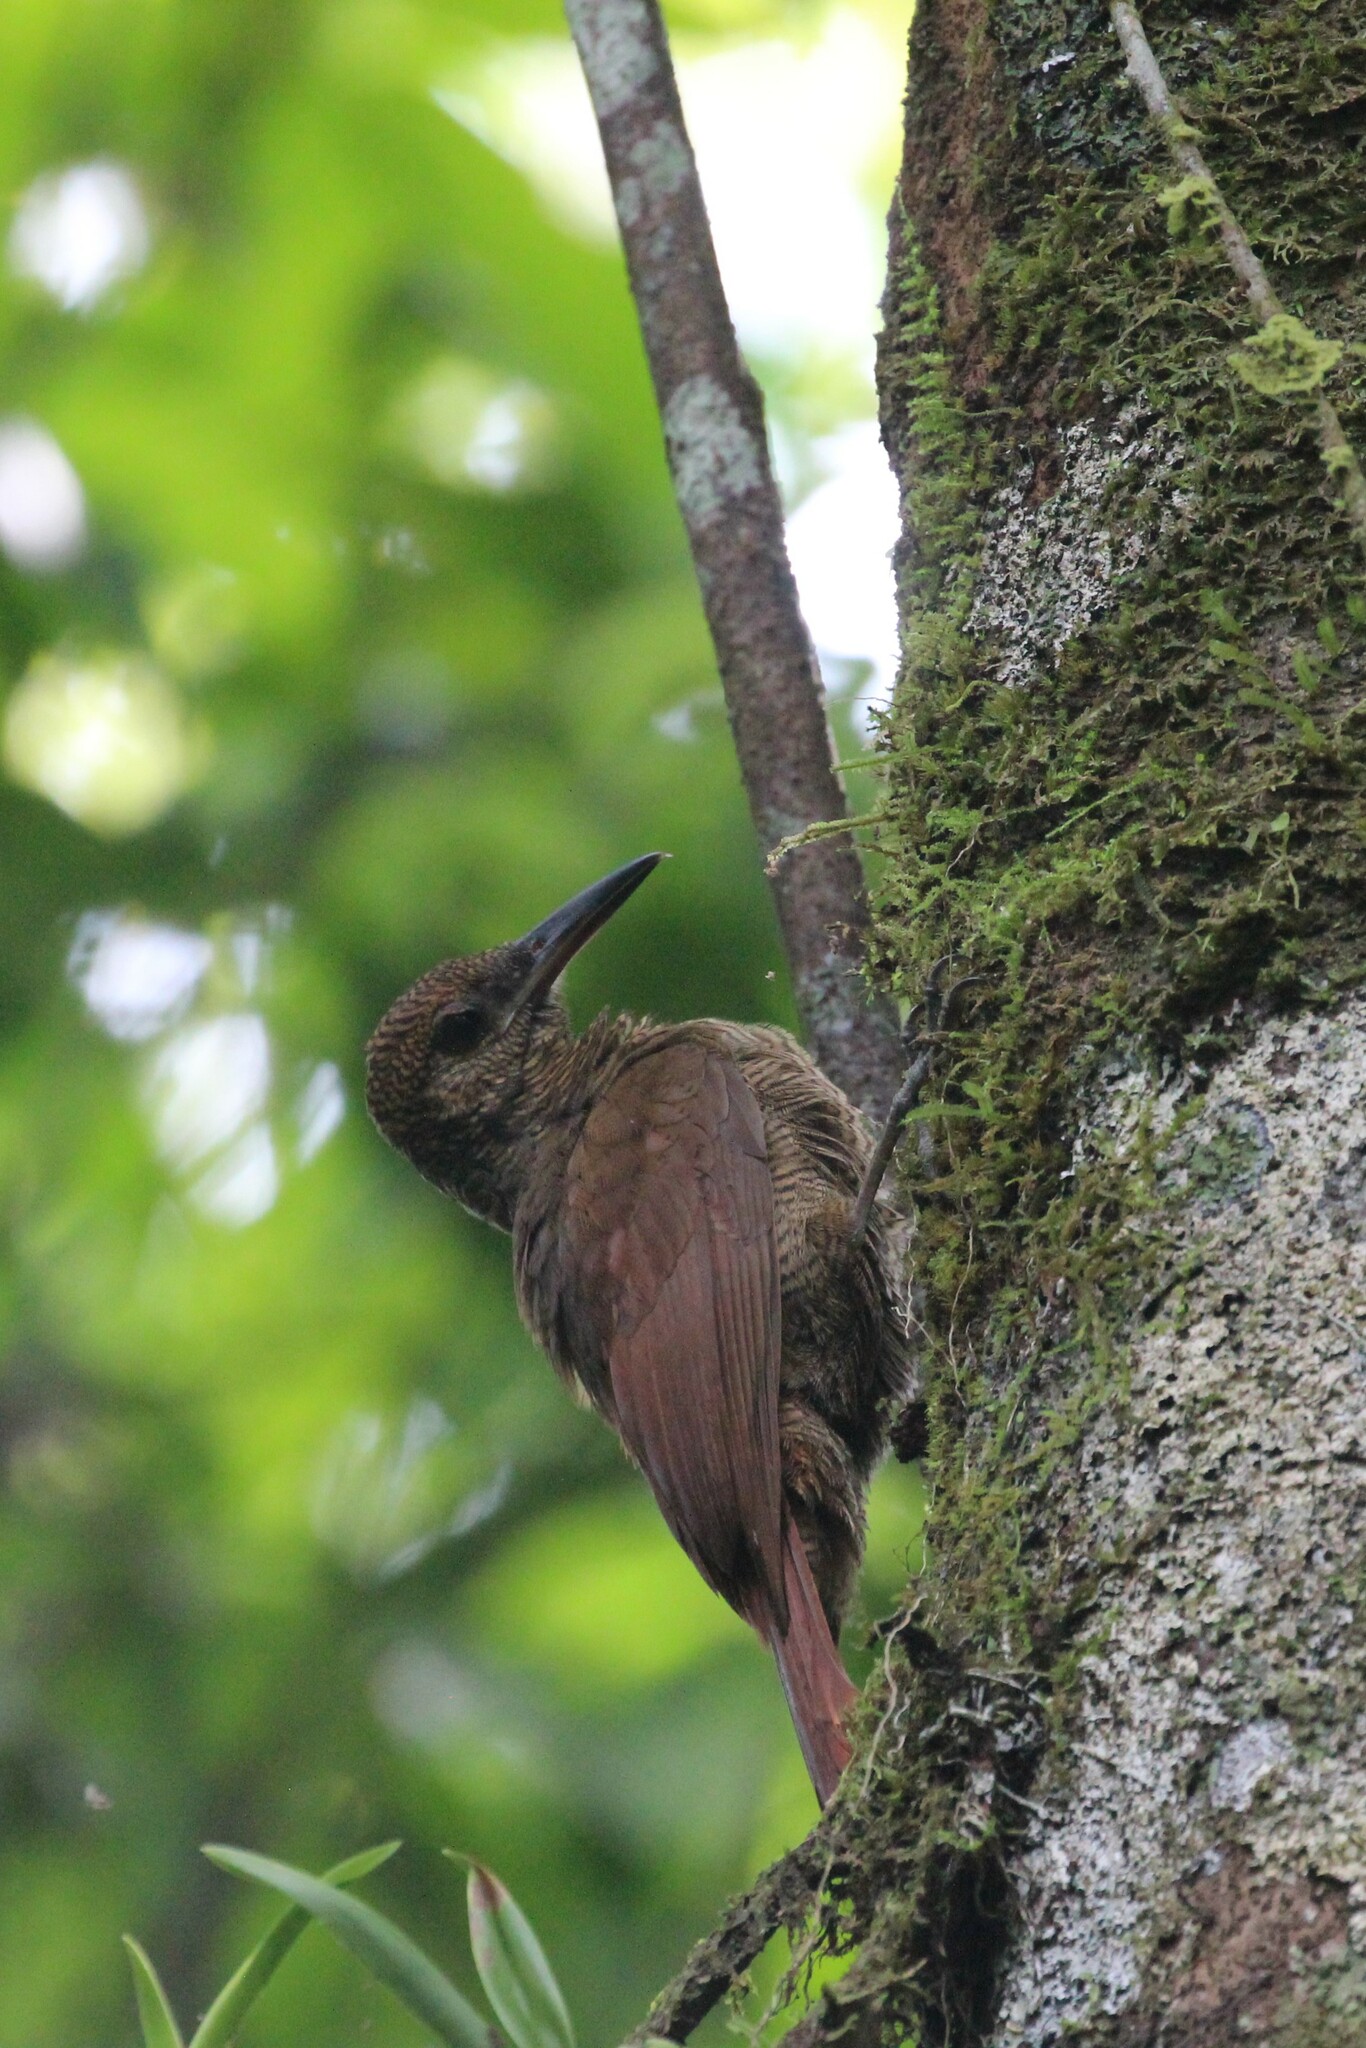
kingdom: Animalia
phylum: Chordata
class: Aves
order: Passeriformes
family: Furnariidae
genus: Dendrocolaptes
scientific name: Dendrocolaptes sanctithomae
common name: Northern barred-woodcreeper
